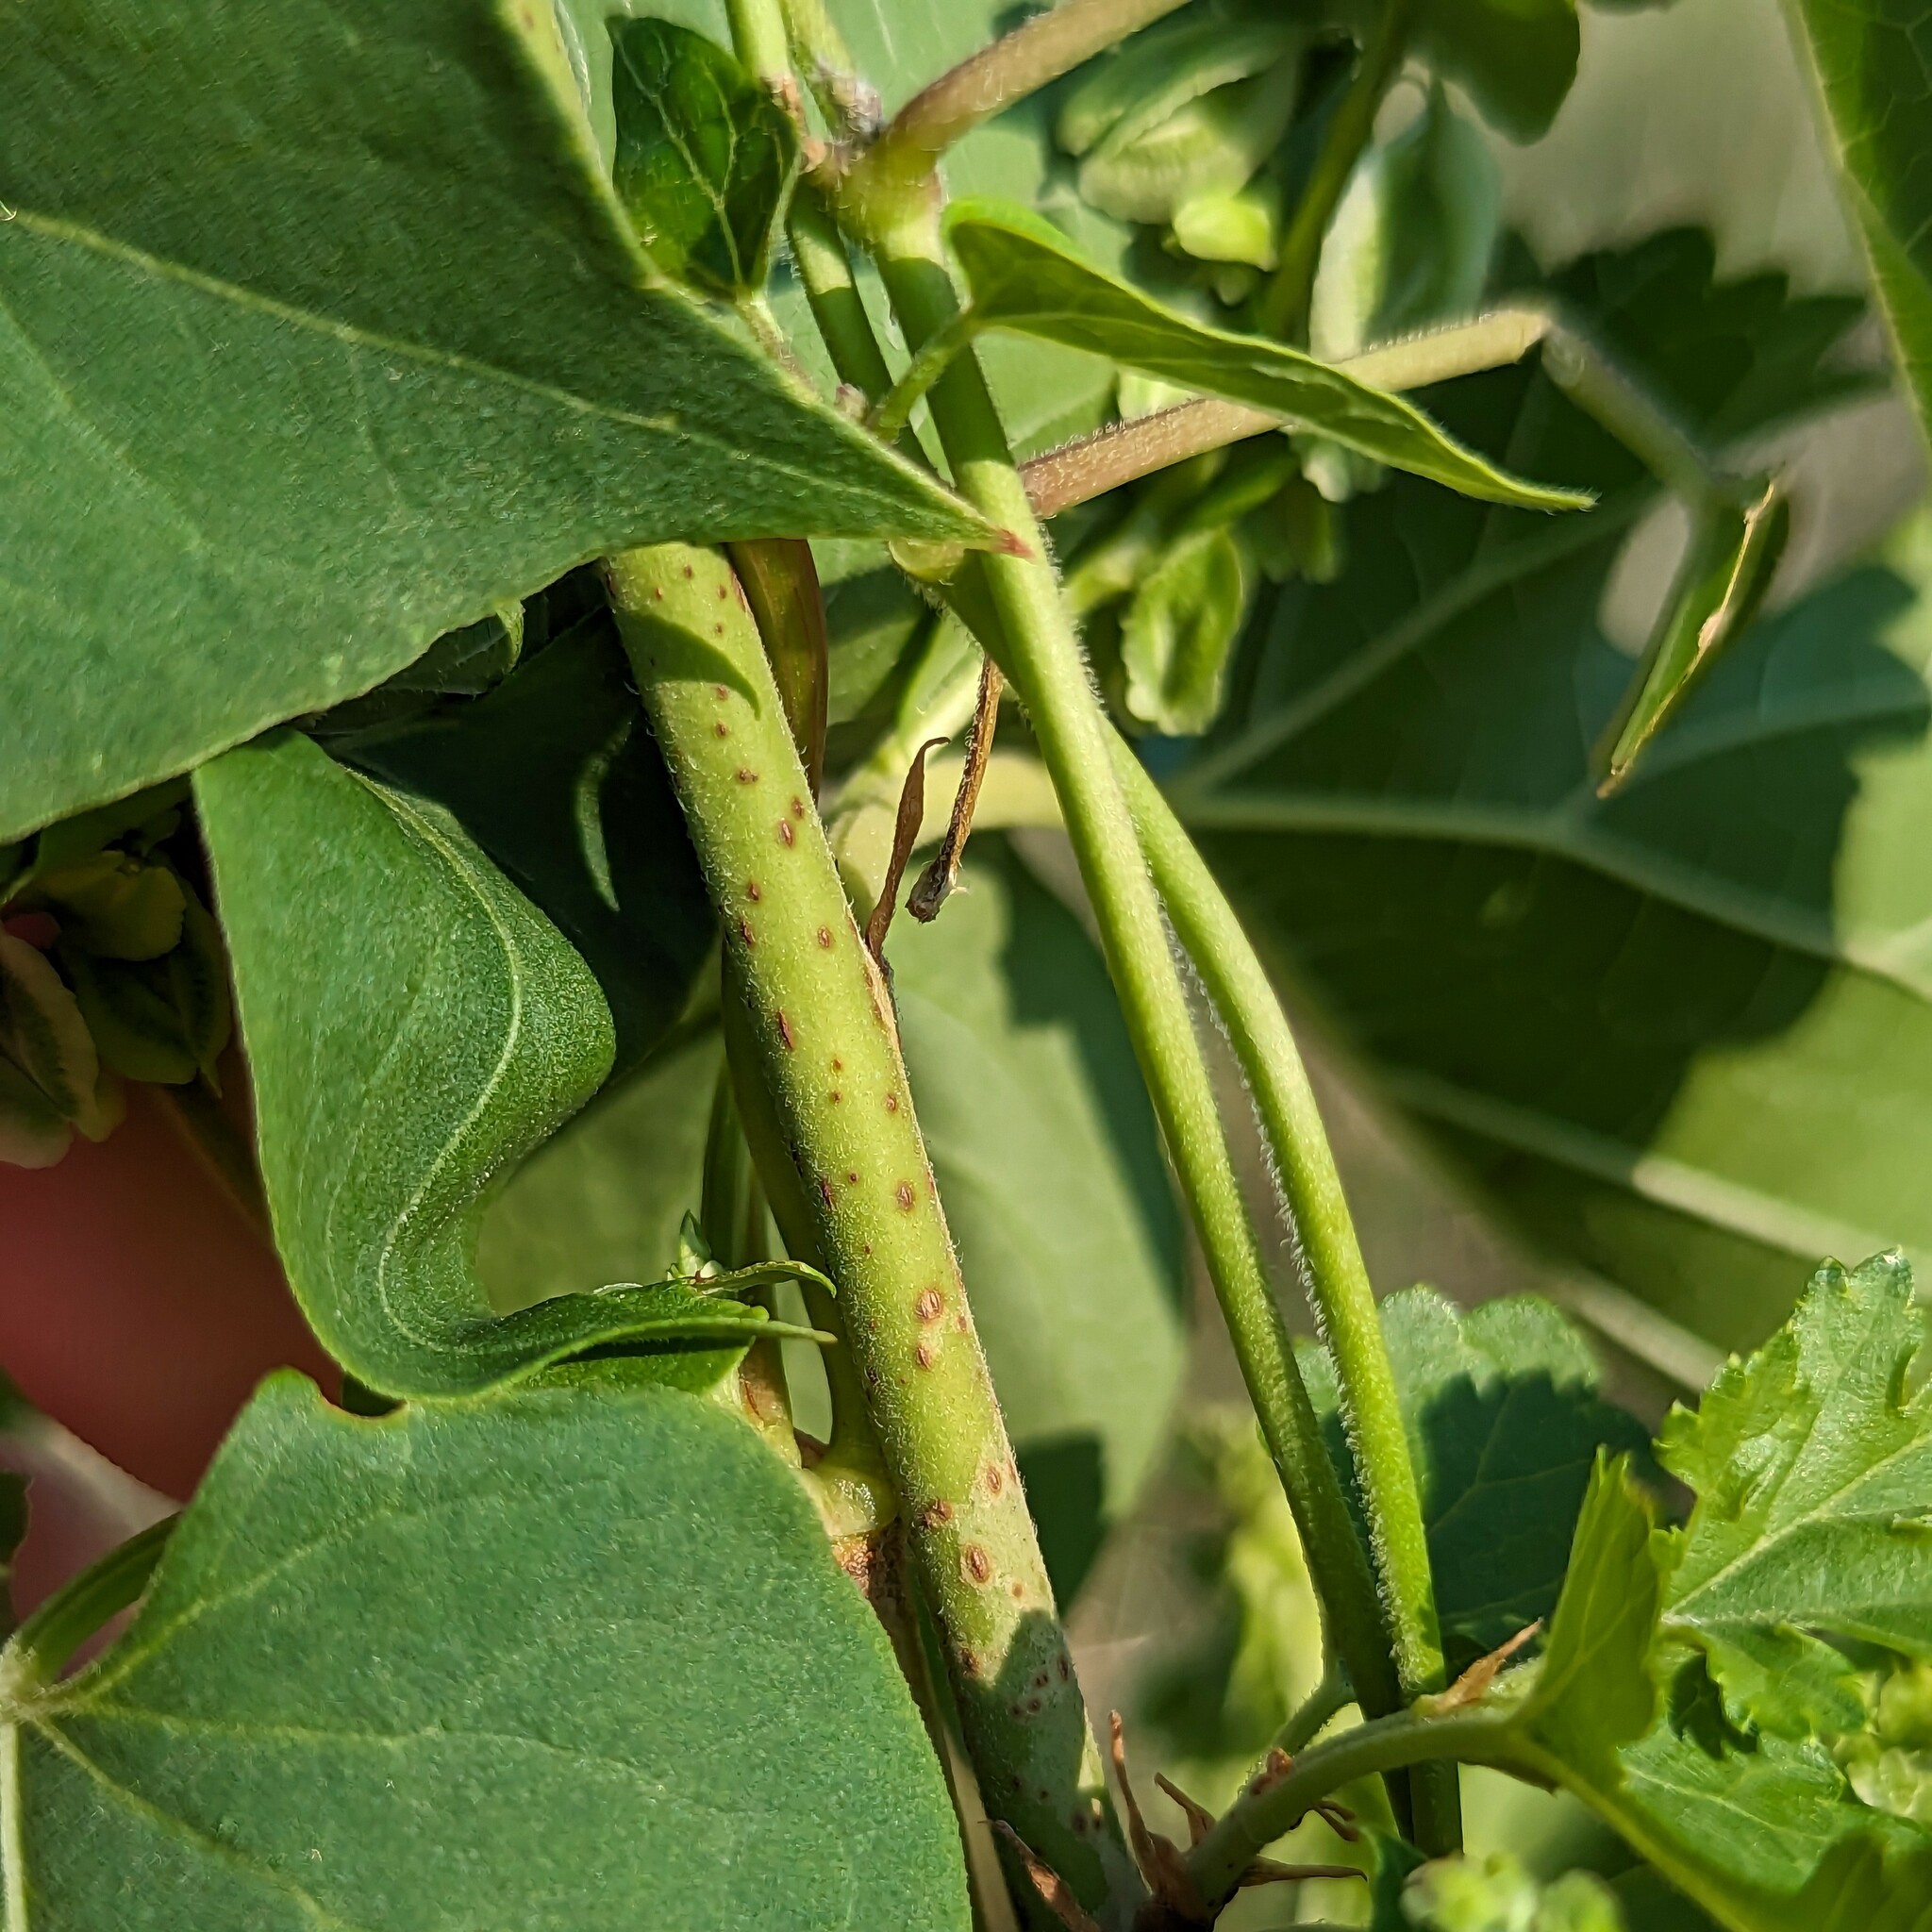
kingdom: Plantae
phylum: Tracheophyta
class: Magnoliopsida
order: Gentianales
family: Apocynaceae
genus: Cynanchum
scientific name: Cynanchum laeve
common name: Sandvine
